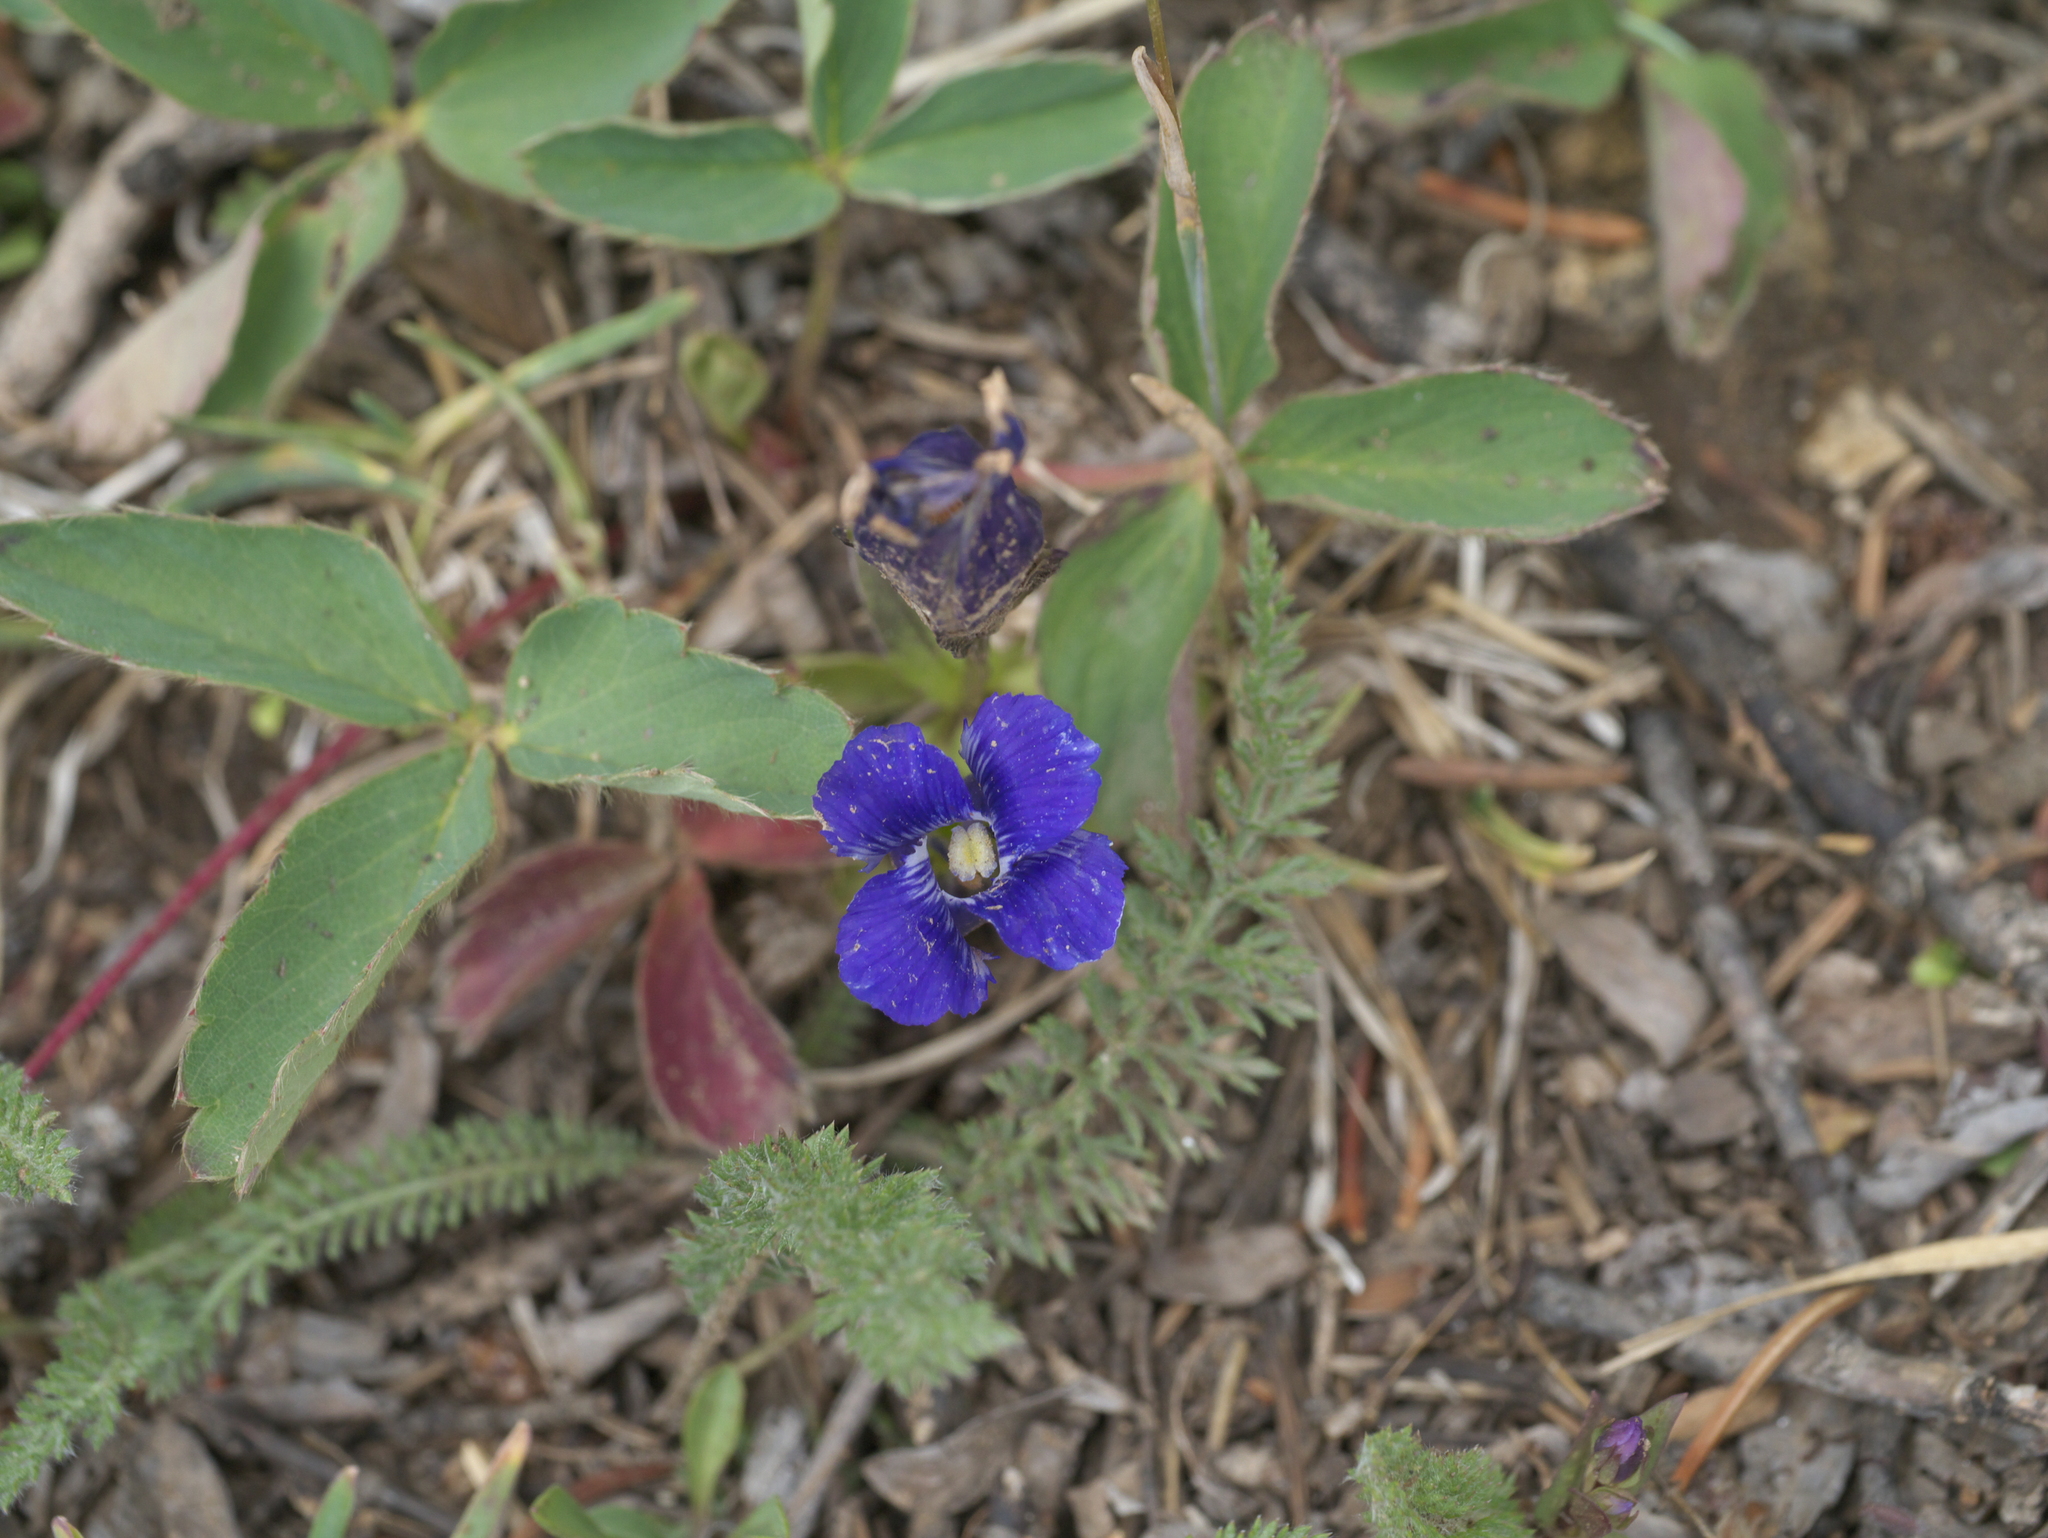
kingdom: Plantae
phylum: Tracheophyta
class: Magnoliopsida
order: Gentianales
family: Gentianaceae
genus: Gentianopsis
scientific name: Gentianopsis thermalis
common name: Rocky mountain fringed-gentian
